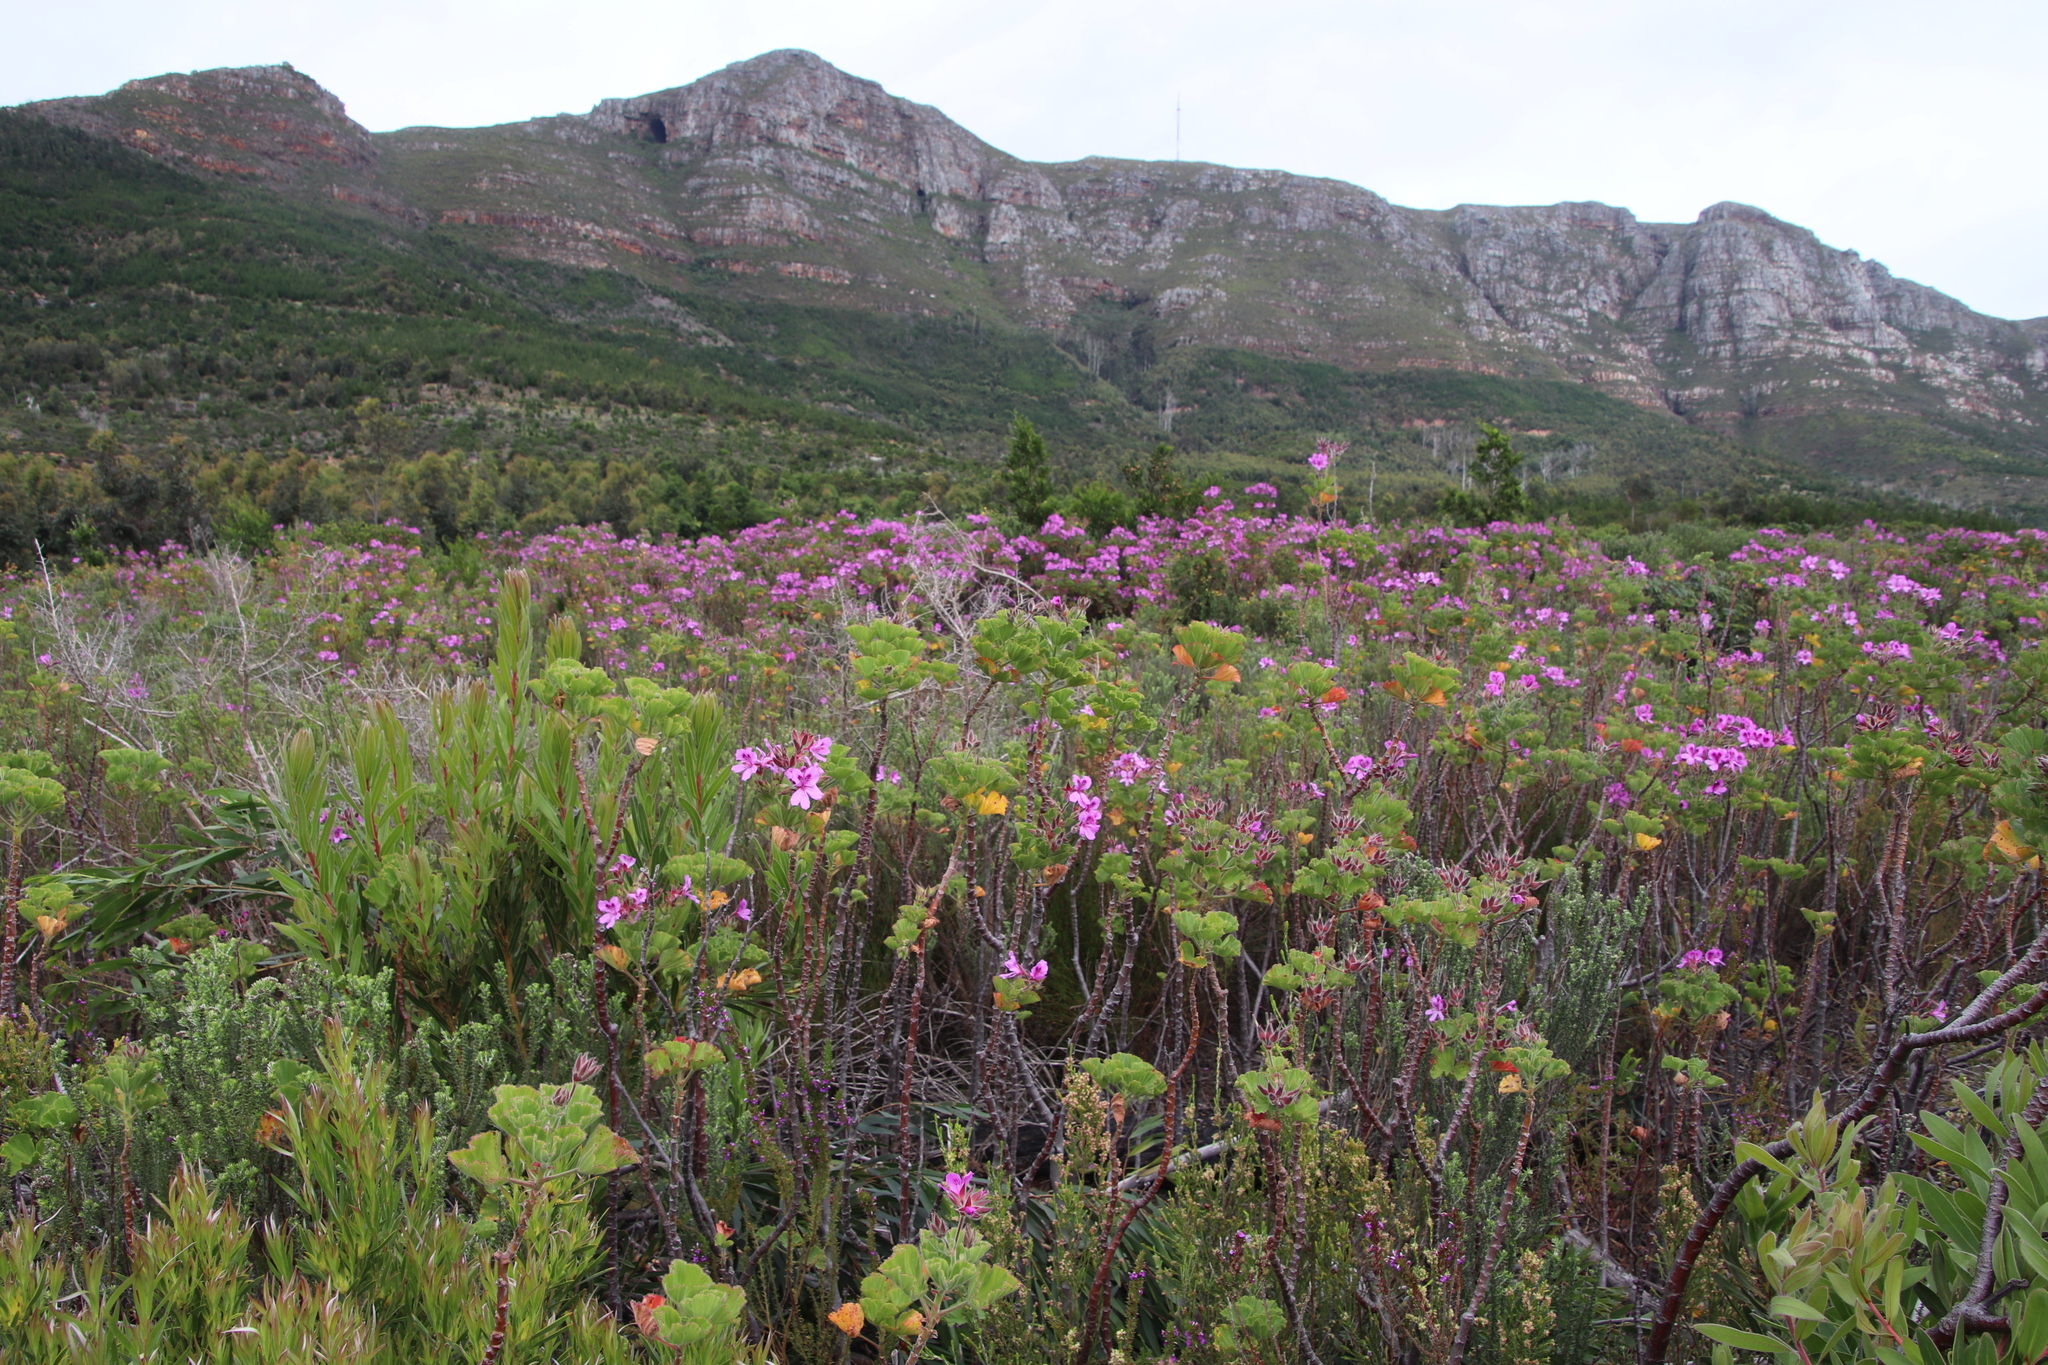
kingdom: Plantae
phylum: Tracheophyta
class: Magnoliopsida
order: Geraniales
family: Geraniaceae
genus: Pelargonium
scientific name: Pelargonium cucullatum
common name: Tree pelargonium
